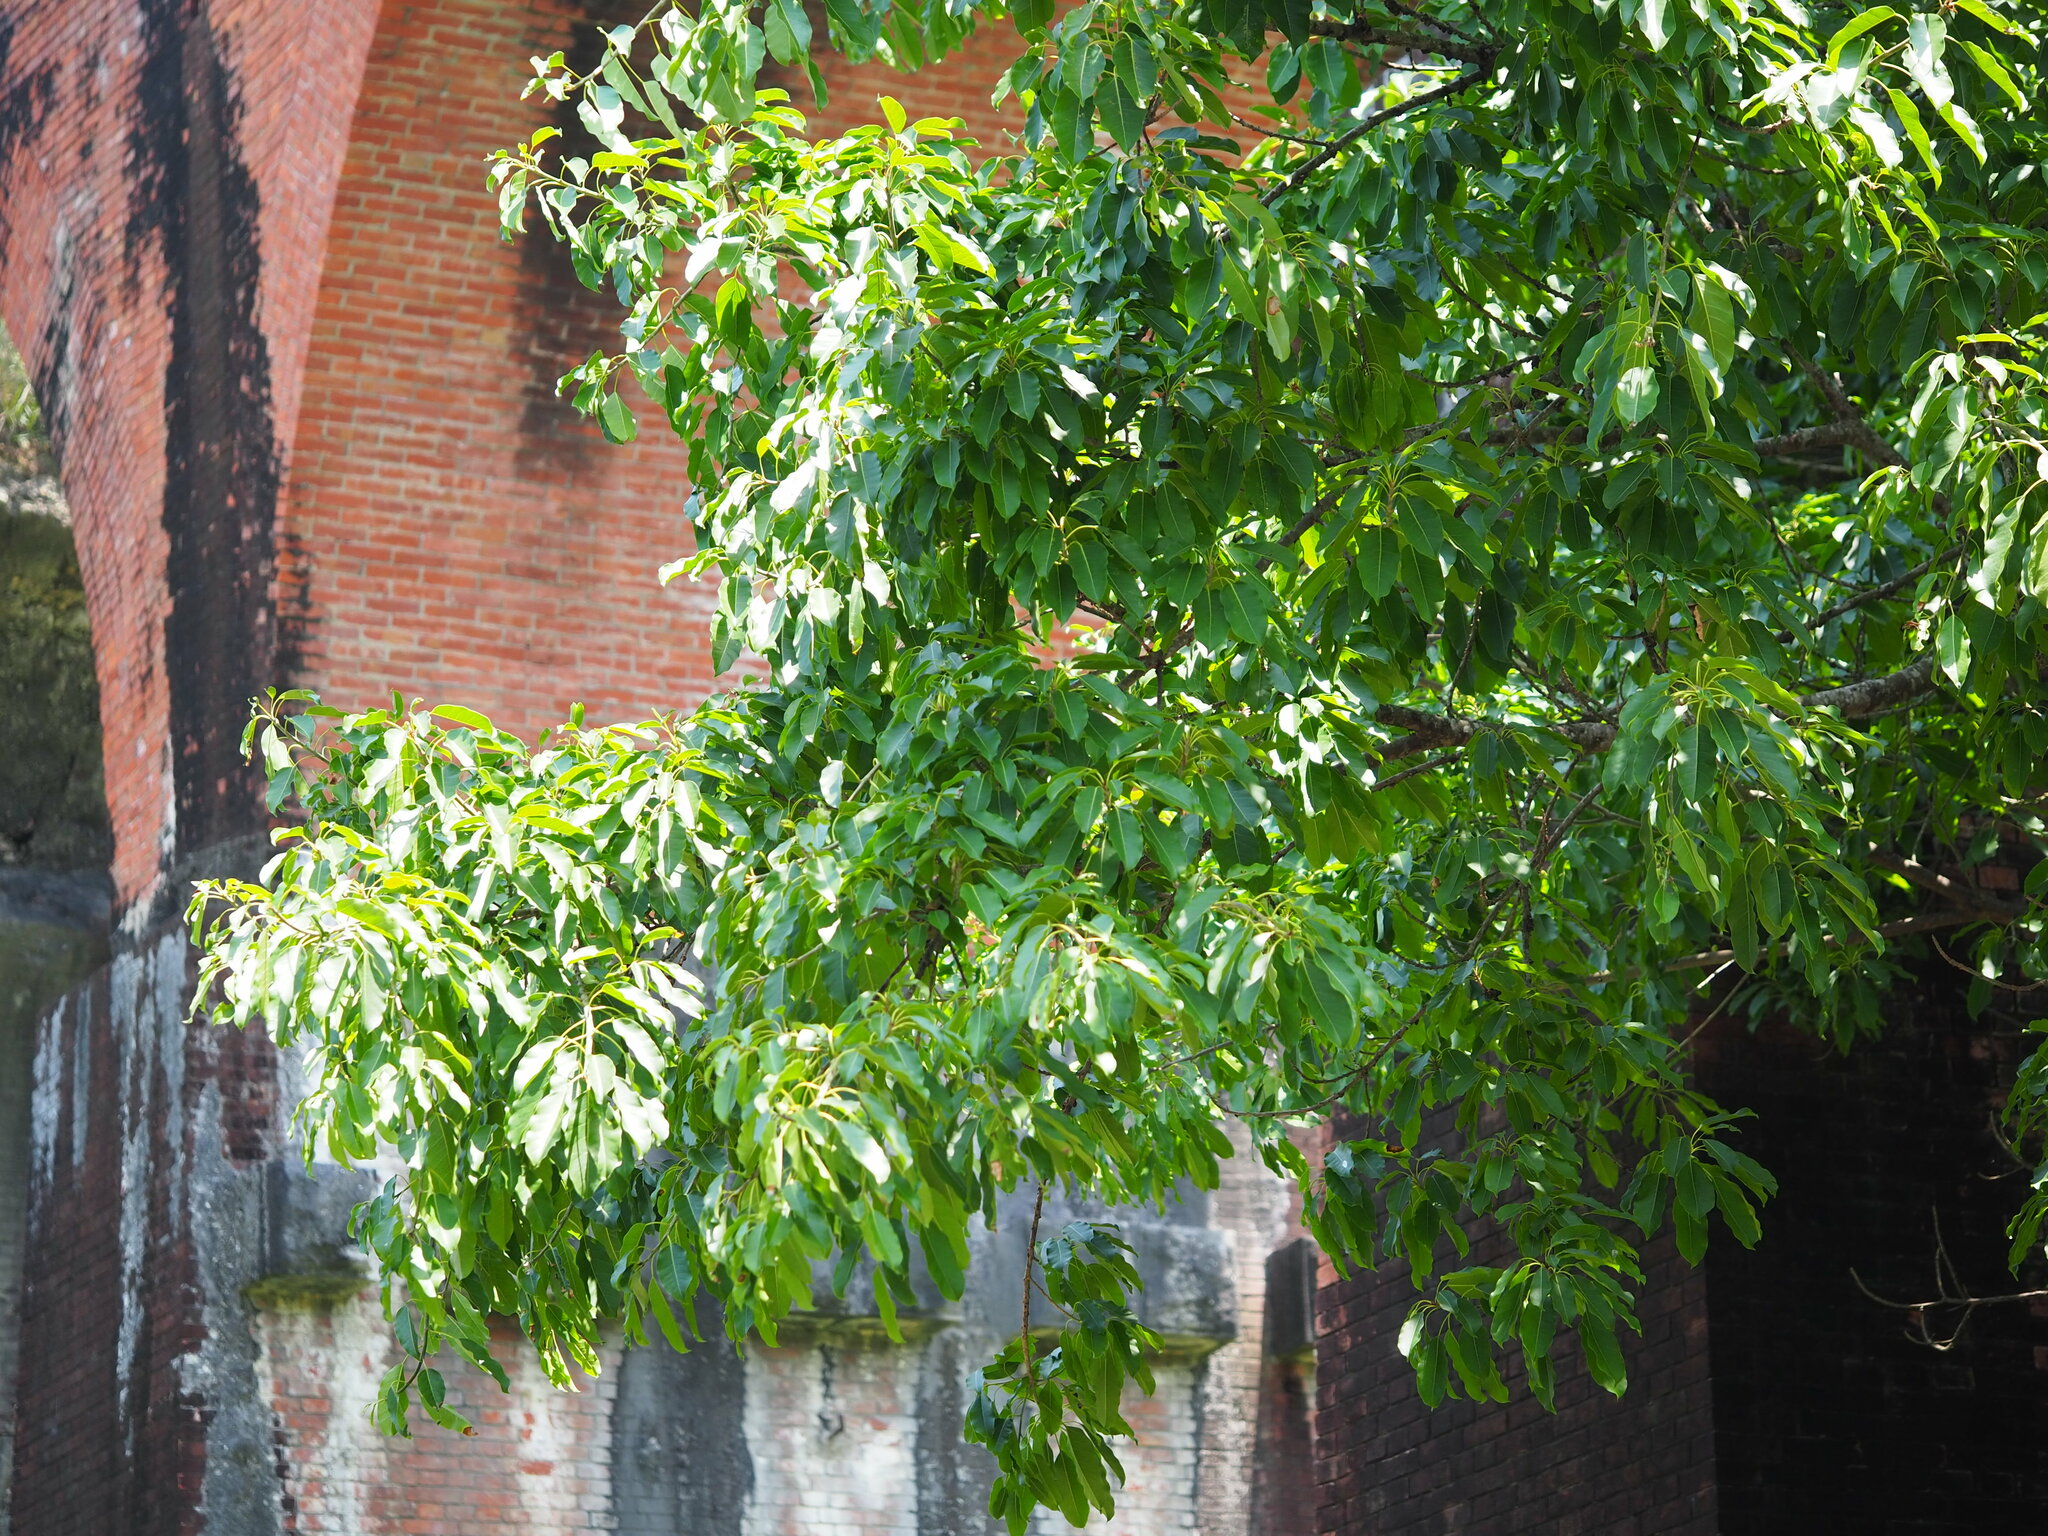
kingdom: Plantae
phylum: Tracheophyta
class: Magnoliopsida
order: Rosales
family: Moraceae
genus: Ficus
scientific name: Ficus subpisocarpa
